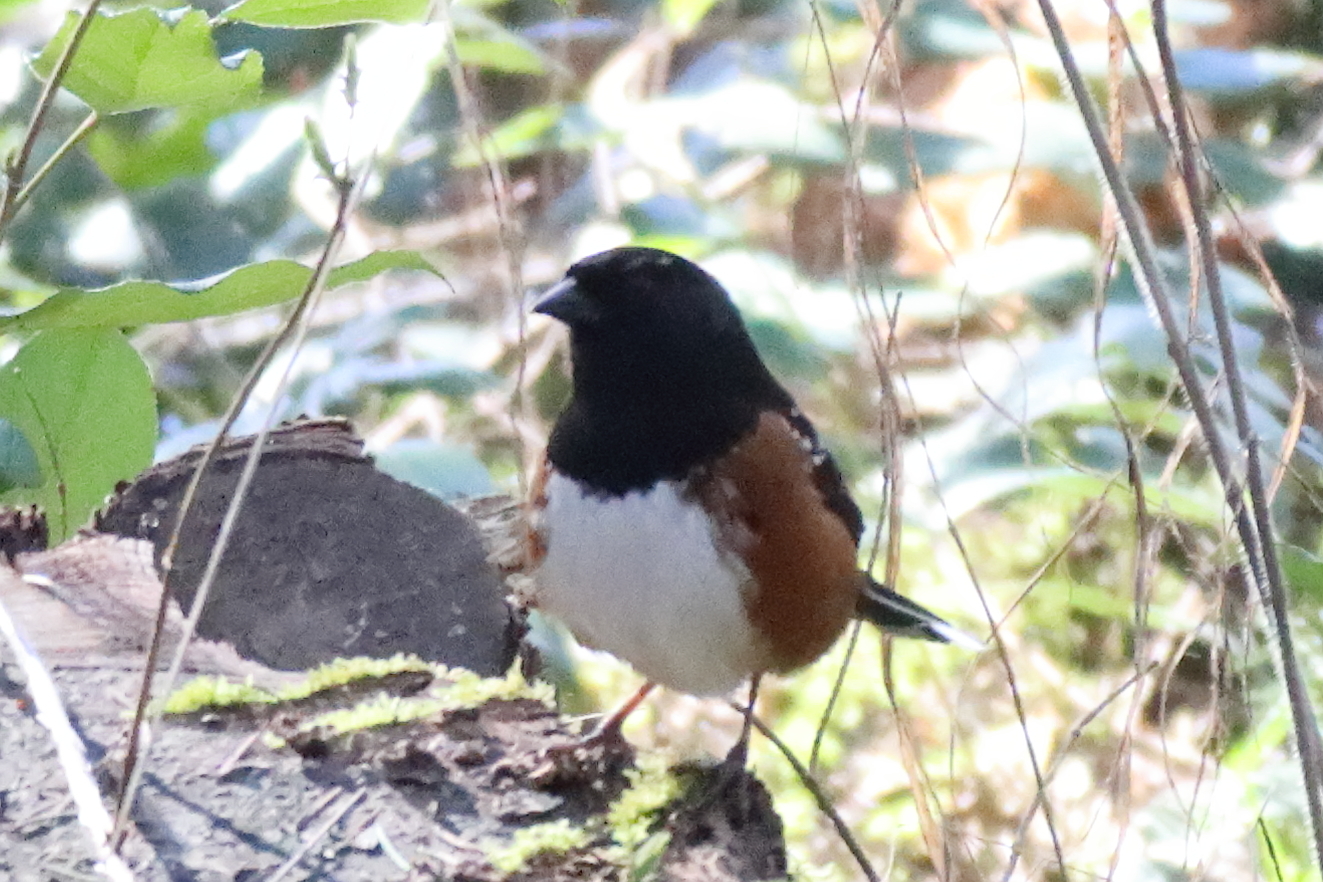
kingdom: Animalia
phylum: Chordata
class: Aves
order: Passeriformes
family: Passerellidae
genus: Pipilo
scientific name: Pipilo maculatus
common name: Spotted towhee
